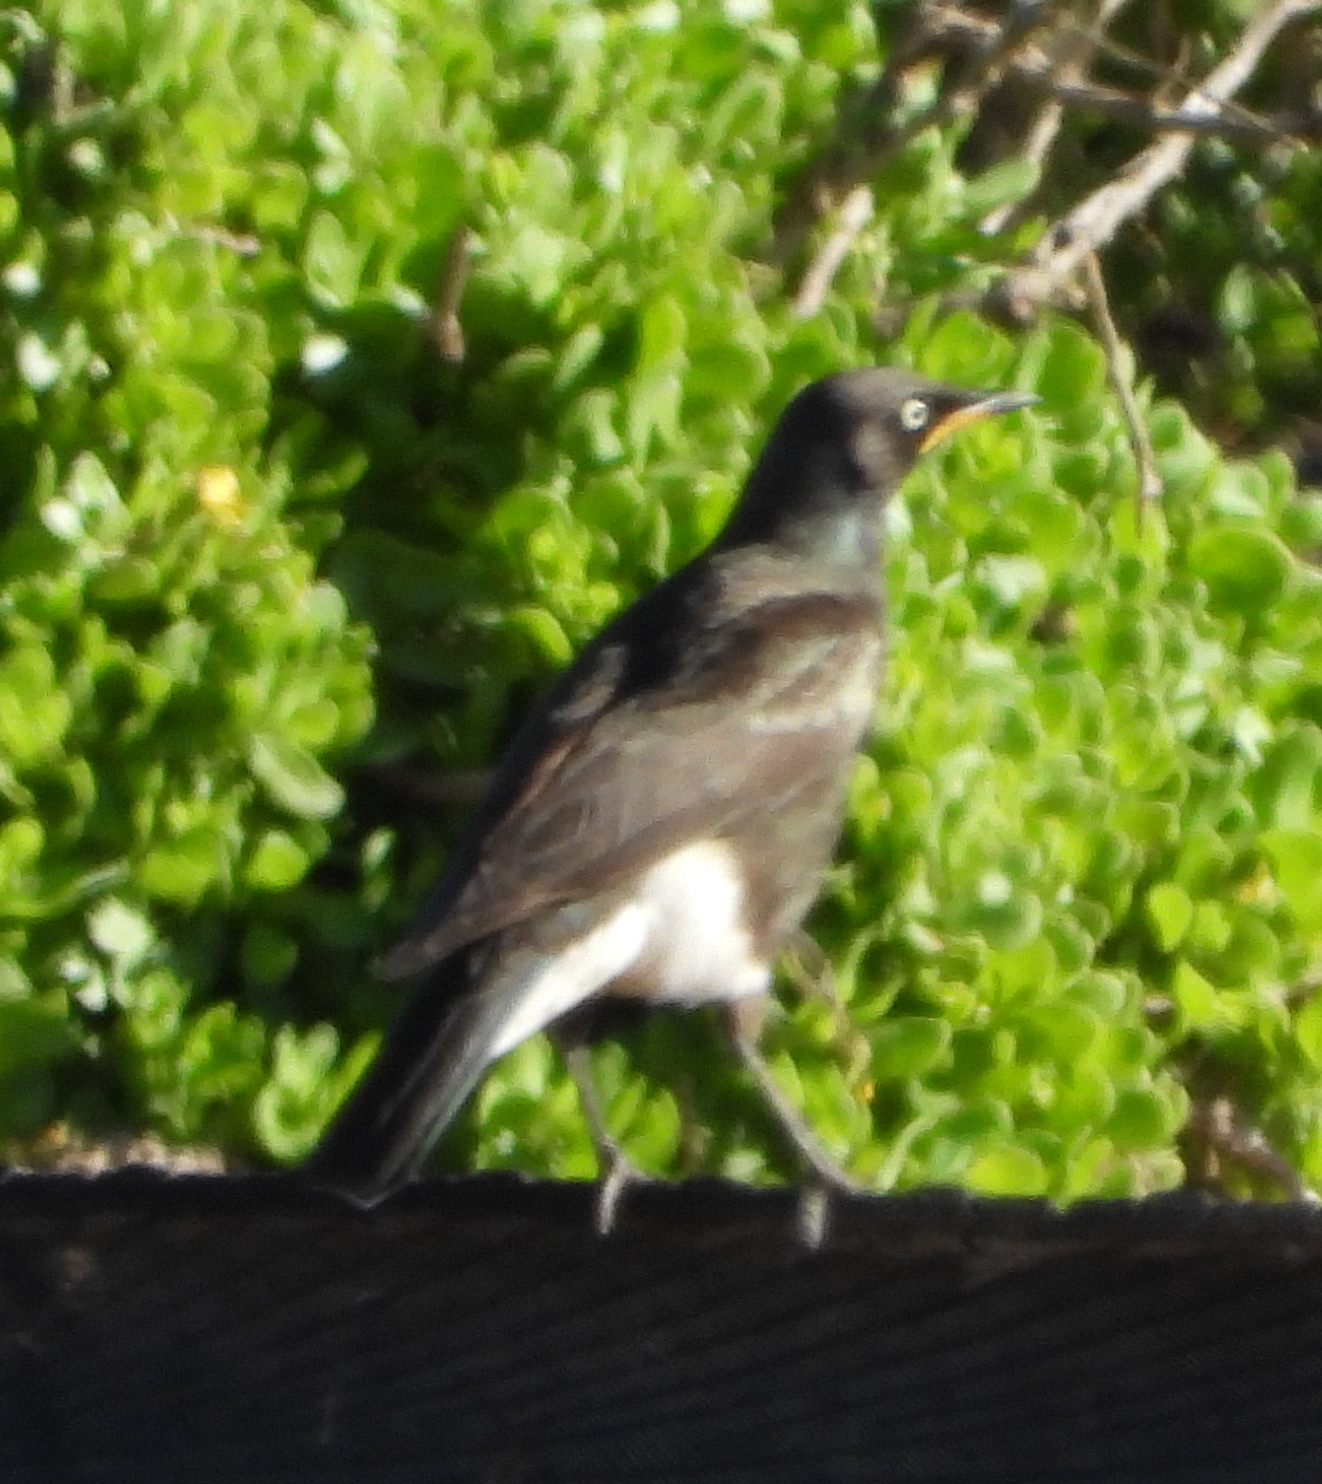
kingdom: Animalia
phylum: Chordata
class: Aves
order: Passeriformes
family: Sturnidae
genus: Lamprotornis
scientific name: Lamprotornis bicolor
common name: Pied starling
